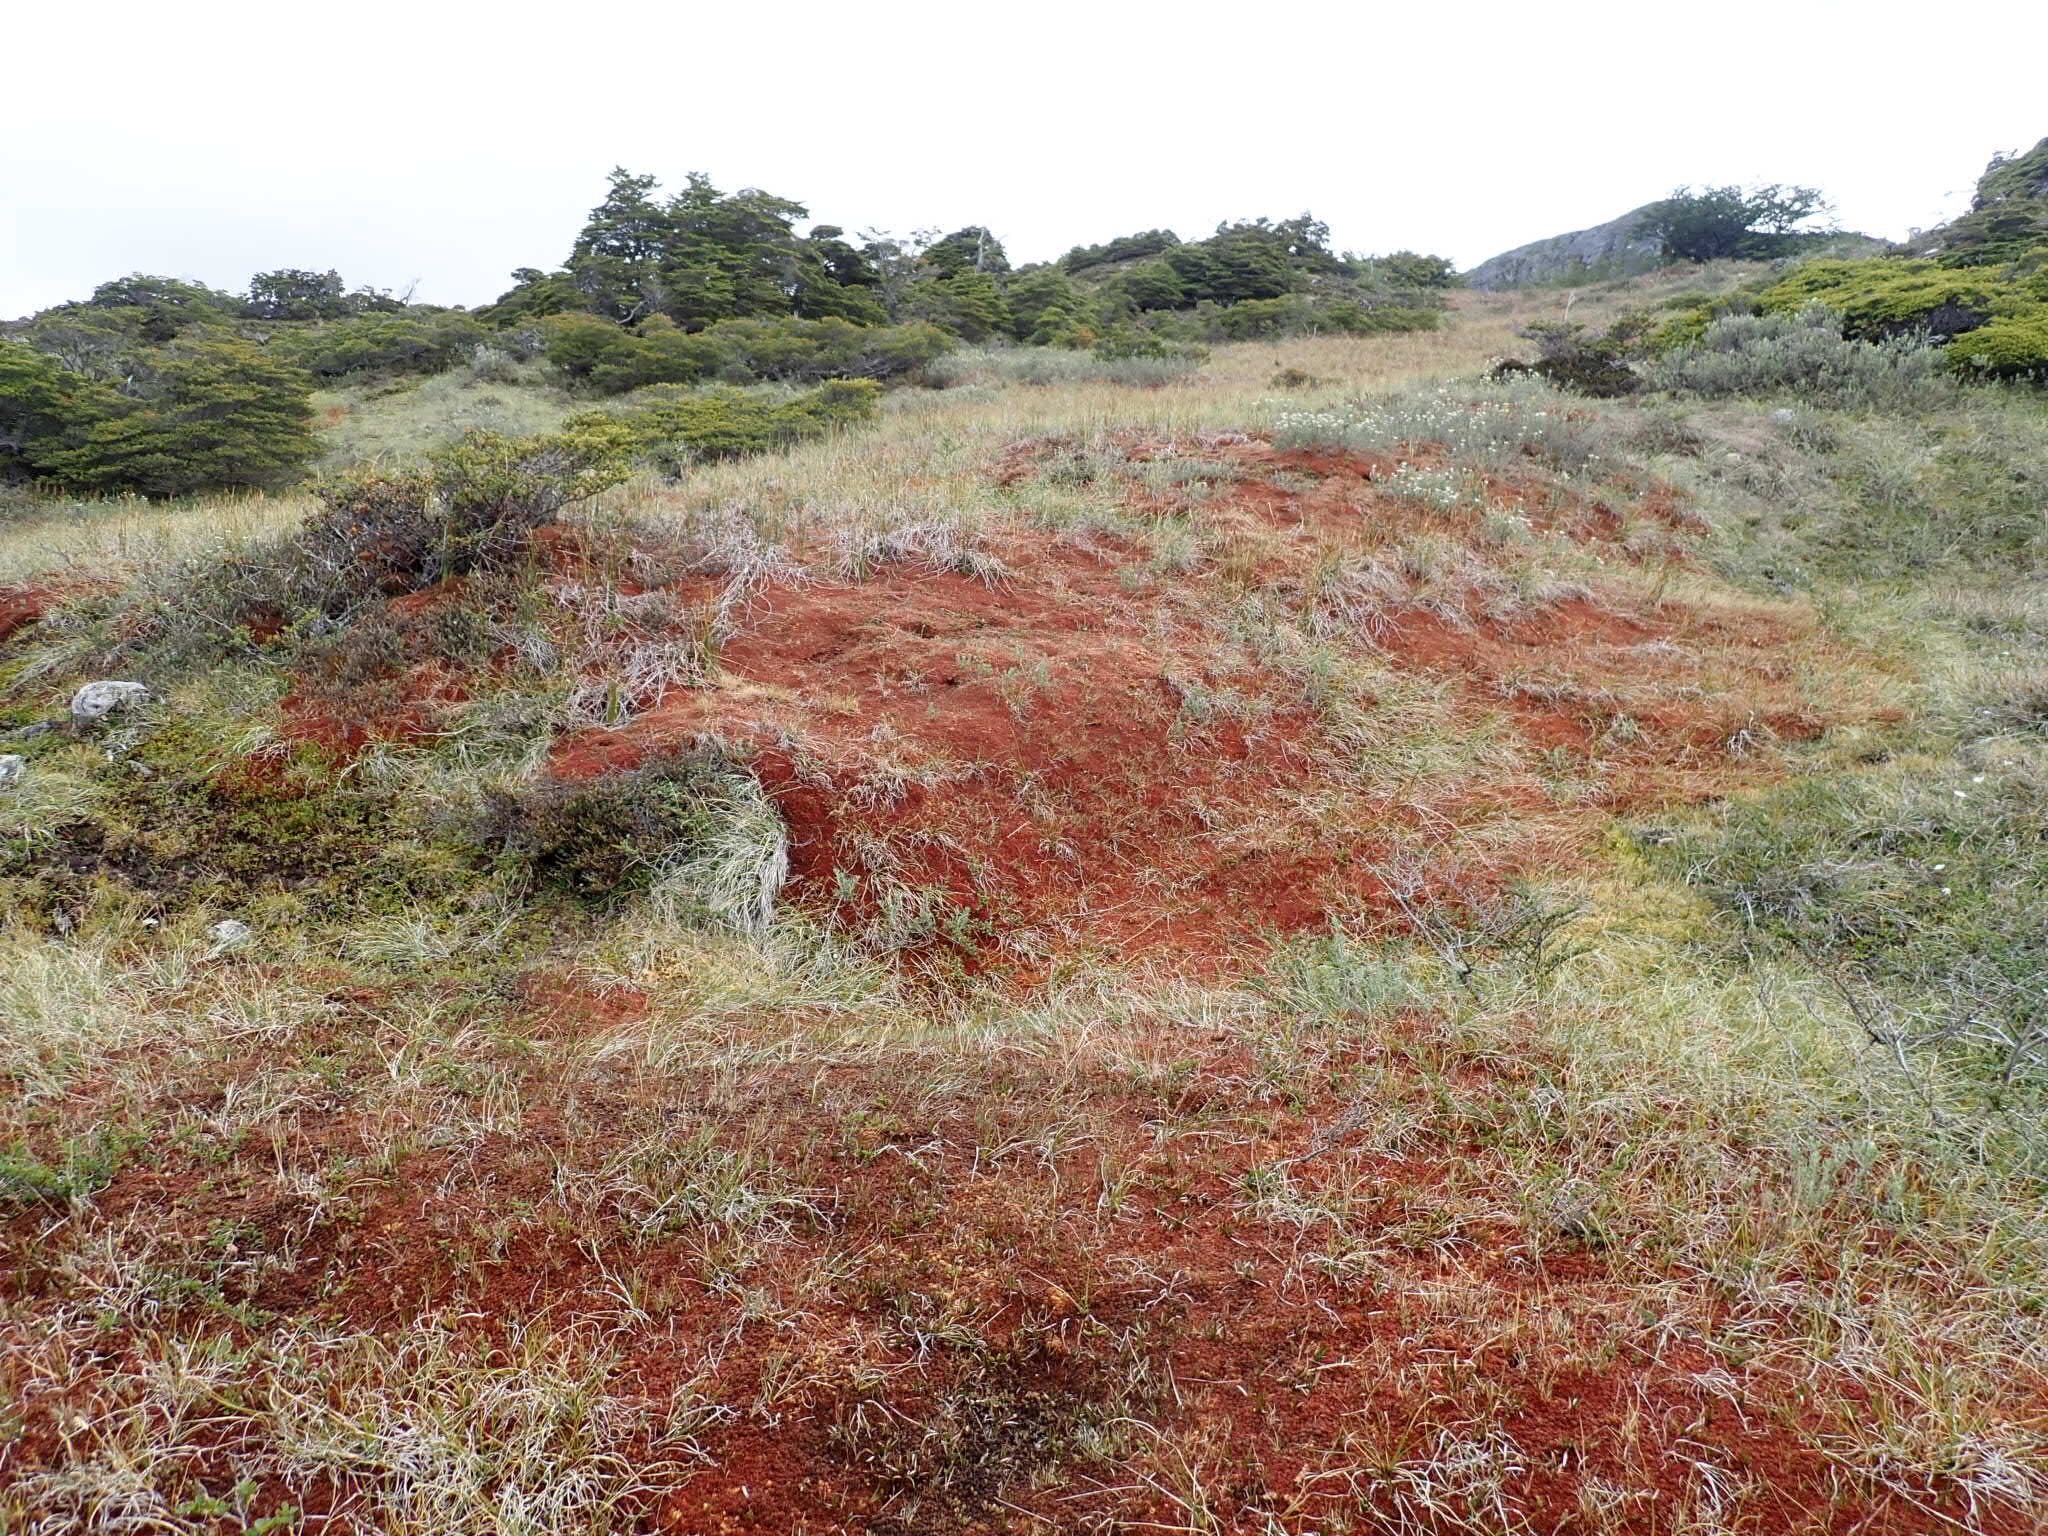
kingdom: Plantae
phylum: Bryophyta
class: Sphagnopsida
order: Sphagnales
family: Sphagnaceae
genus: Sphagnum
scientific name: Sphagnum magellanicum
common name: Magellan's peat moss
